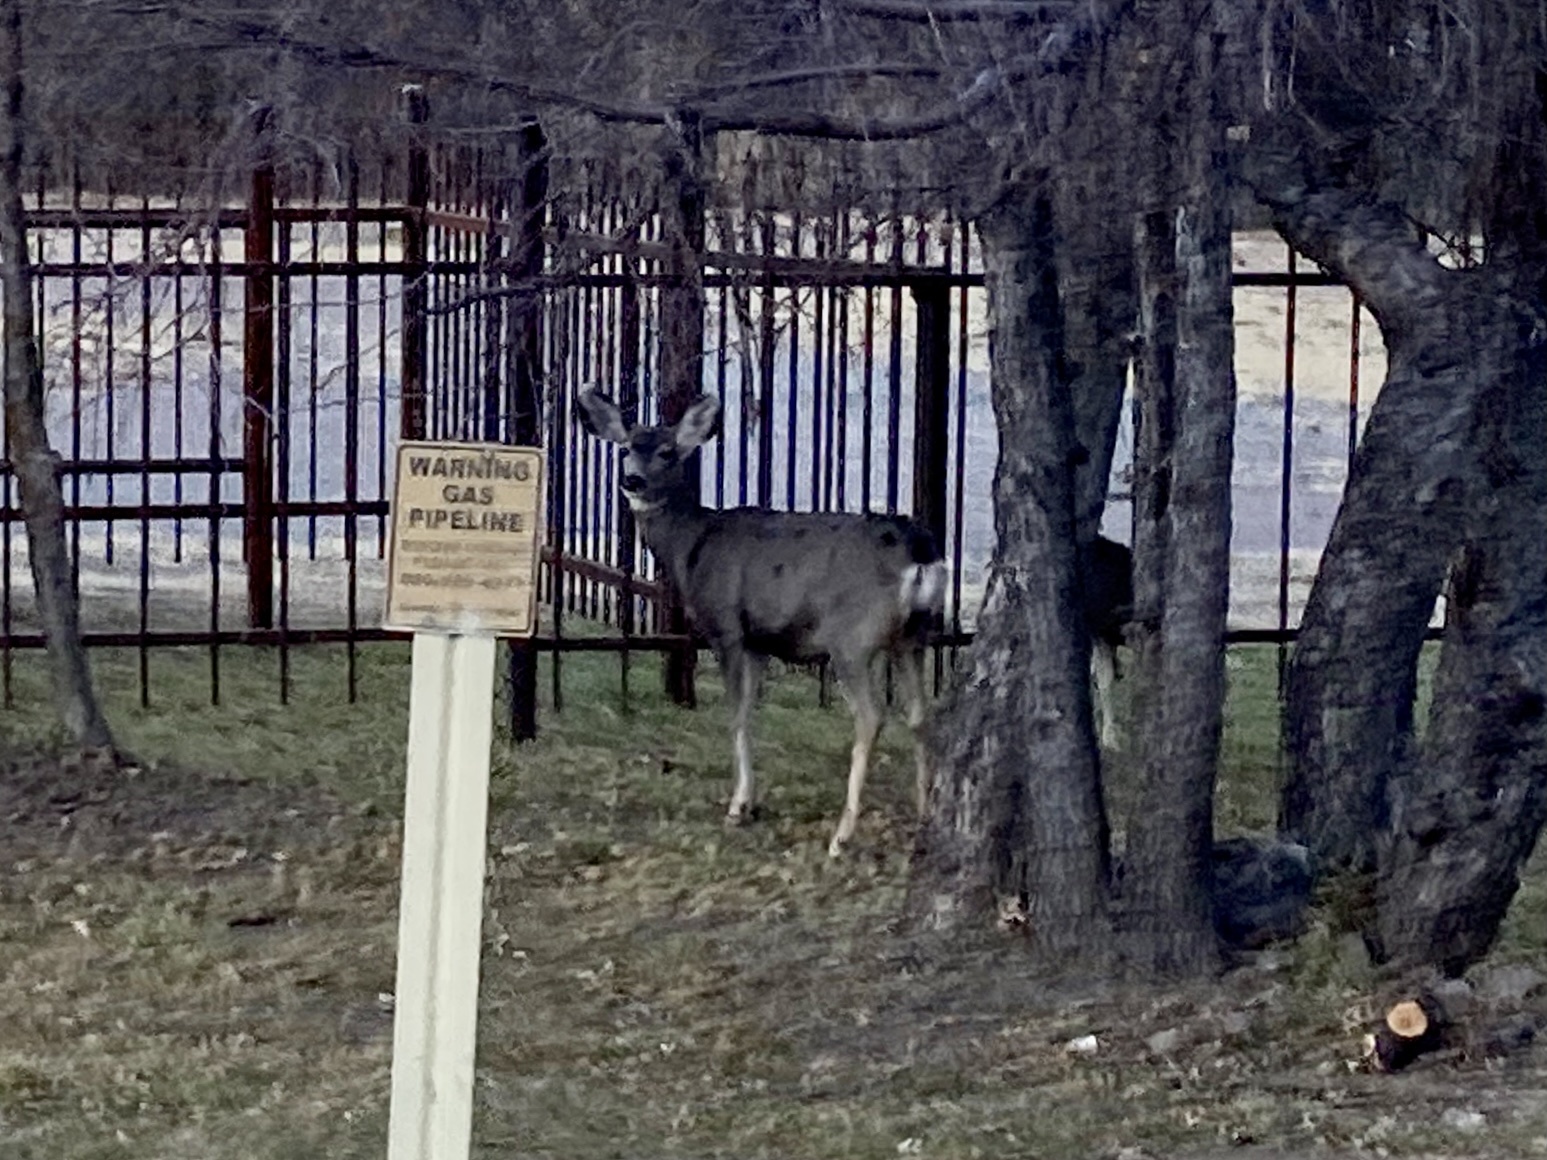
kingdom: Animalia
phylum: Chordata
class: Mammalia
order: Artiodactyla
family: Cervidae
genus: Odocoileus
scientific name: Odocoileus hemionus
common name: Mule deer
